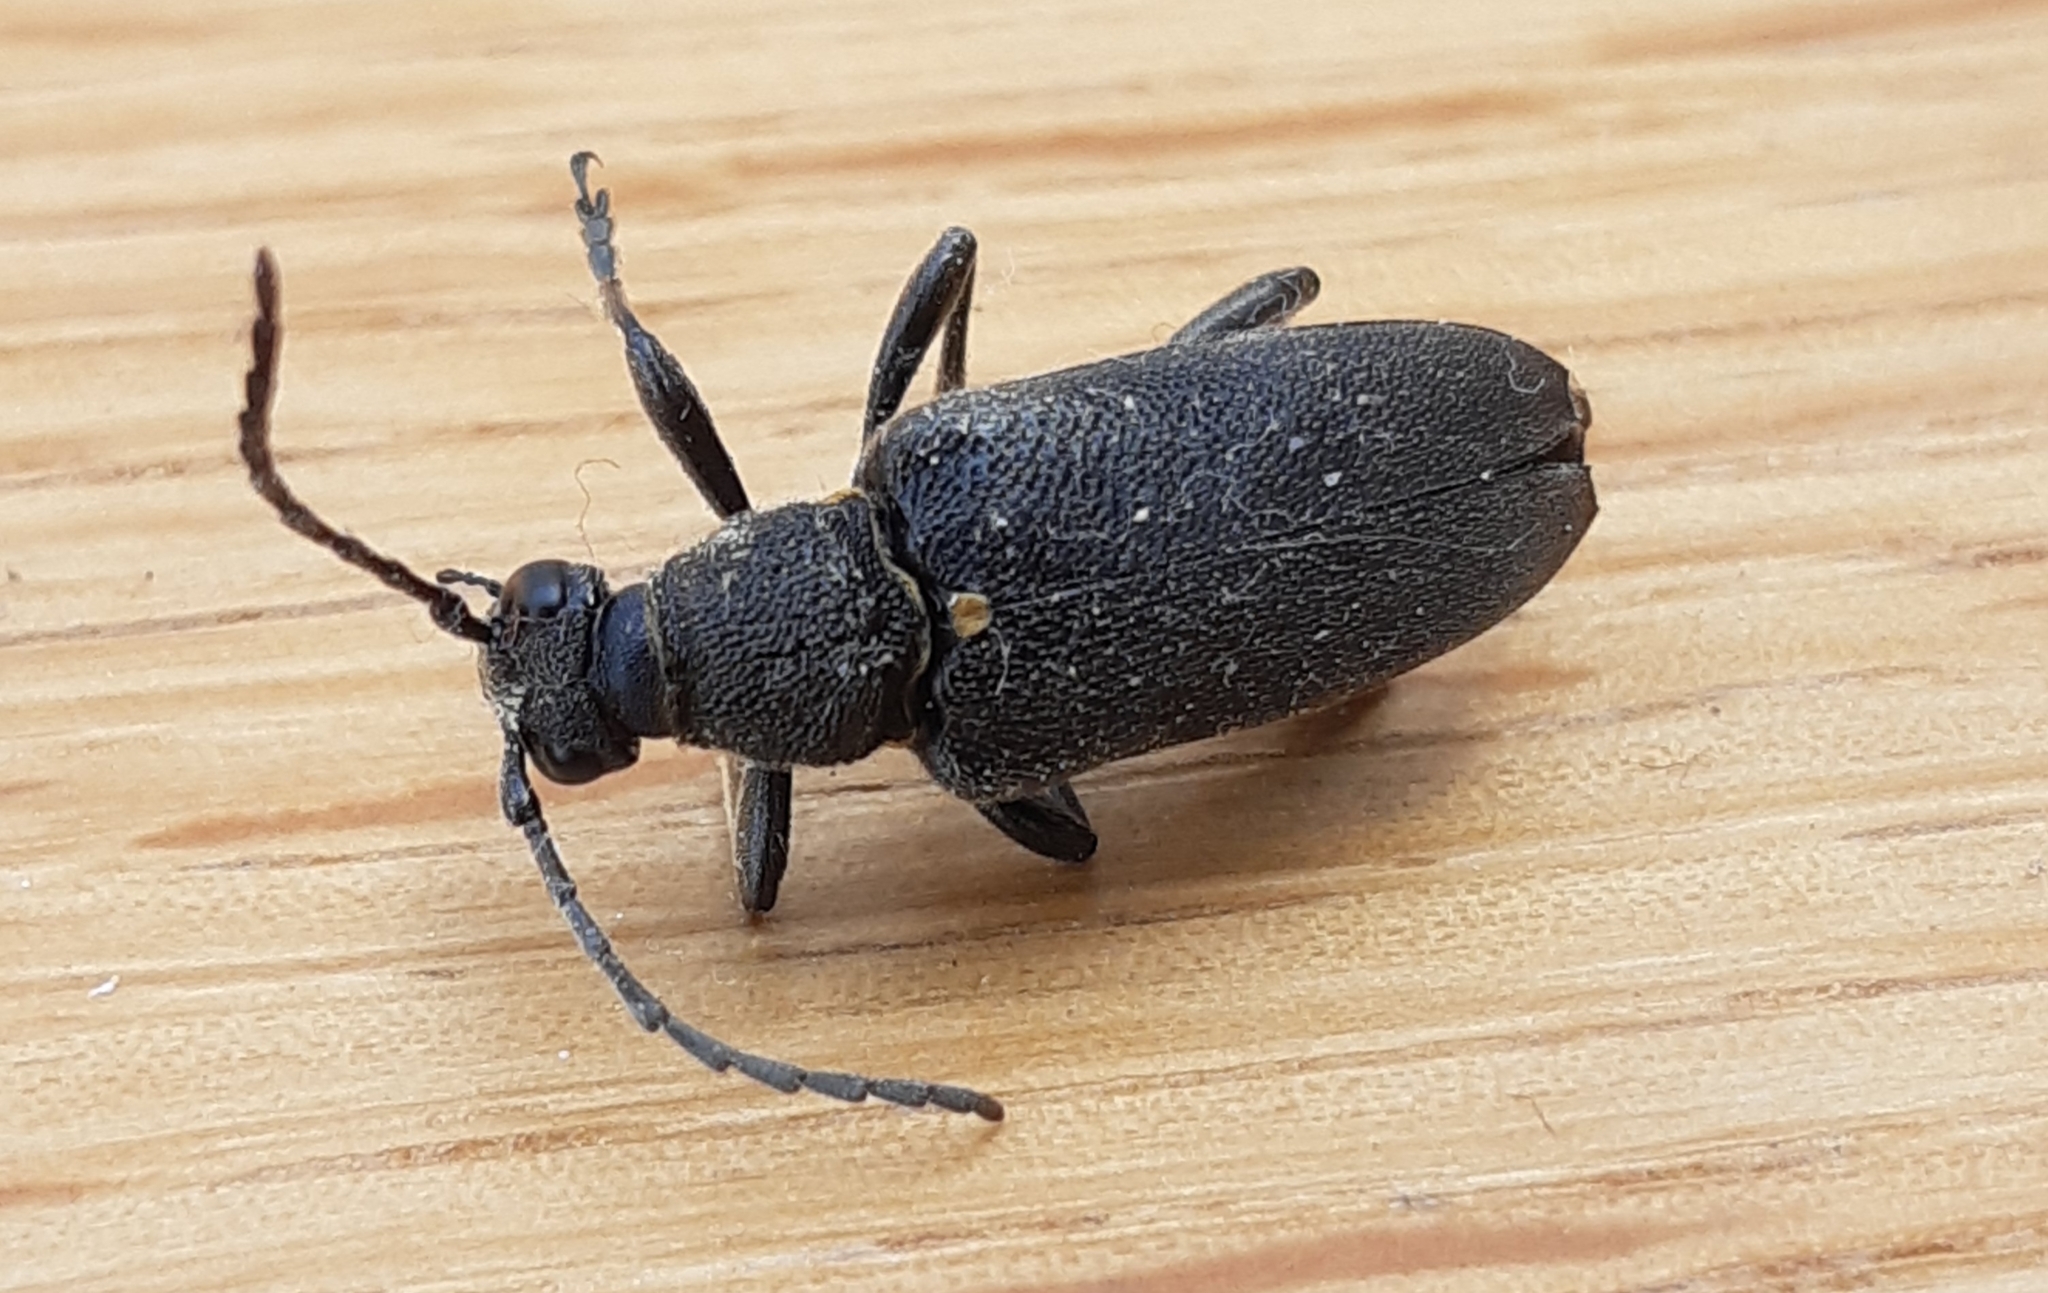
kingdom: Animalia
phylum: Arthropoda
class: Insecta
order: Coleoptera
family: Cerambycidae
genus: Stictoleptura
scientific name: Stictoleptura scutellata
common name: Large black longhorn beetle
